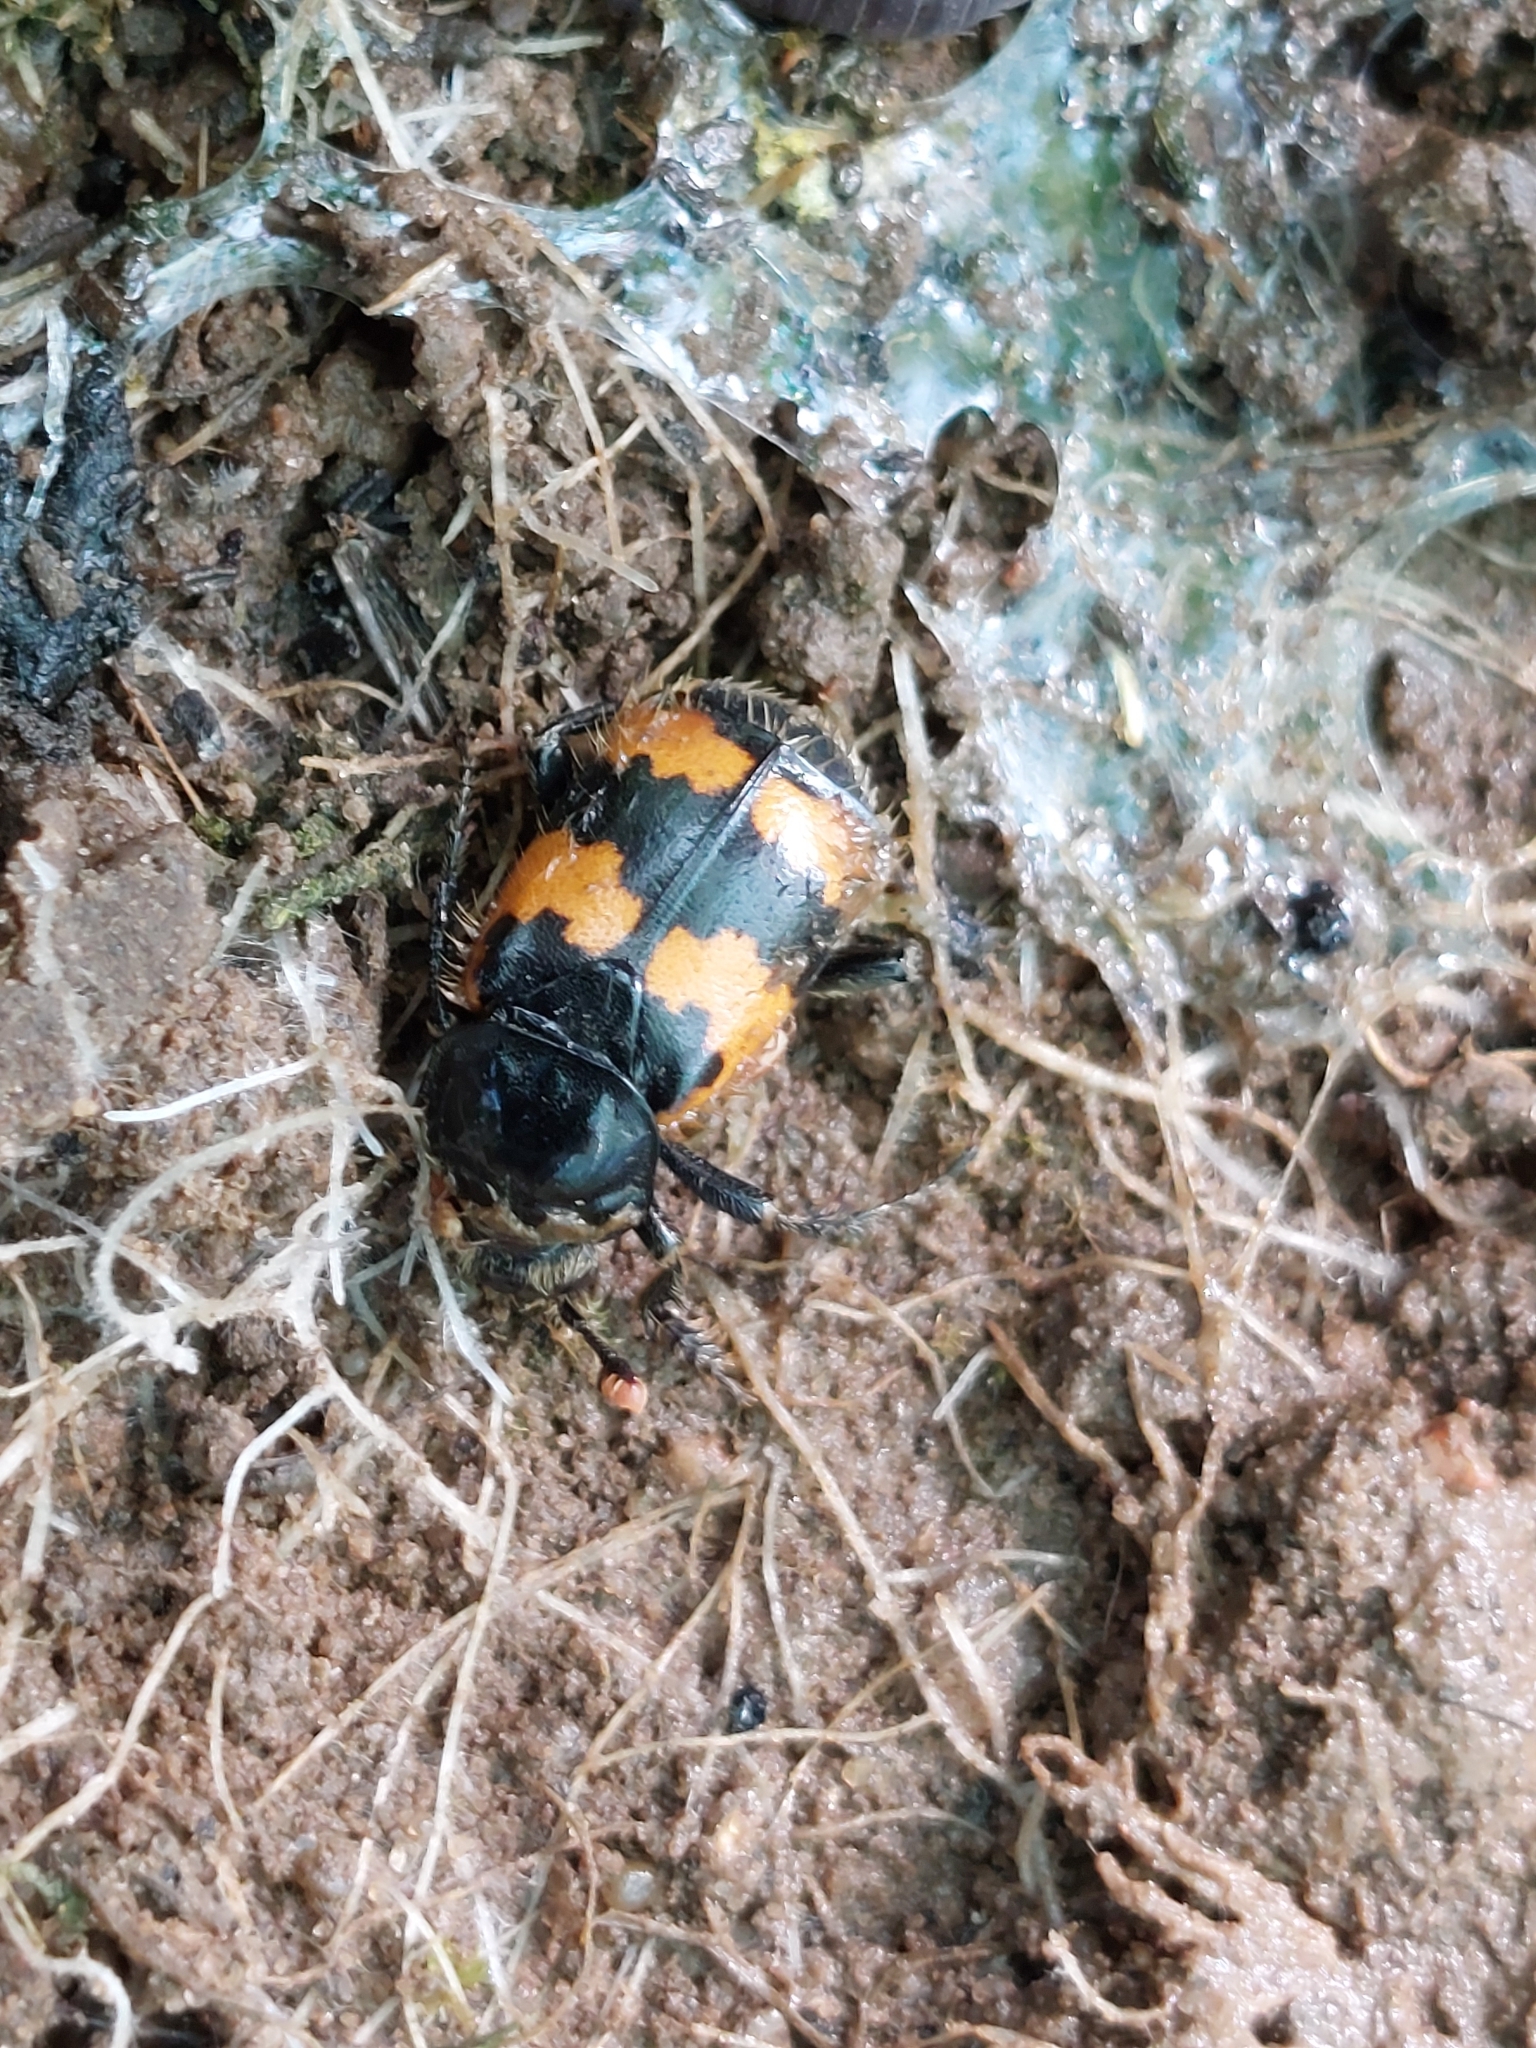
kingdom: Animalia
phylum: Arthropoda
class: Insecta
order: Coleoptera
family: Staphylinidae
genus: Nicrophorus
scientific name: Nicrophorus vespillo
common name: Common burying beetle
